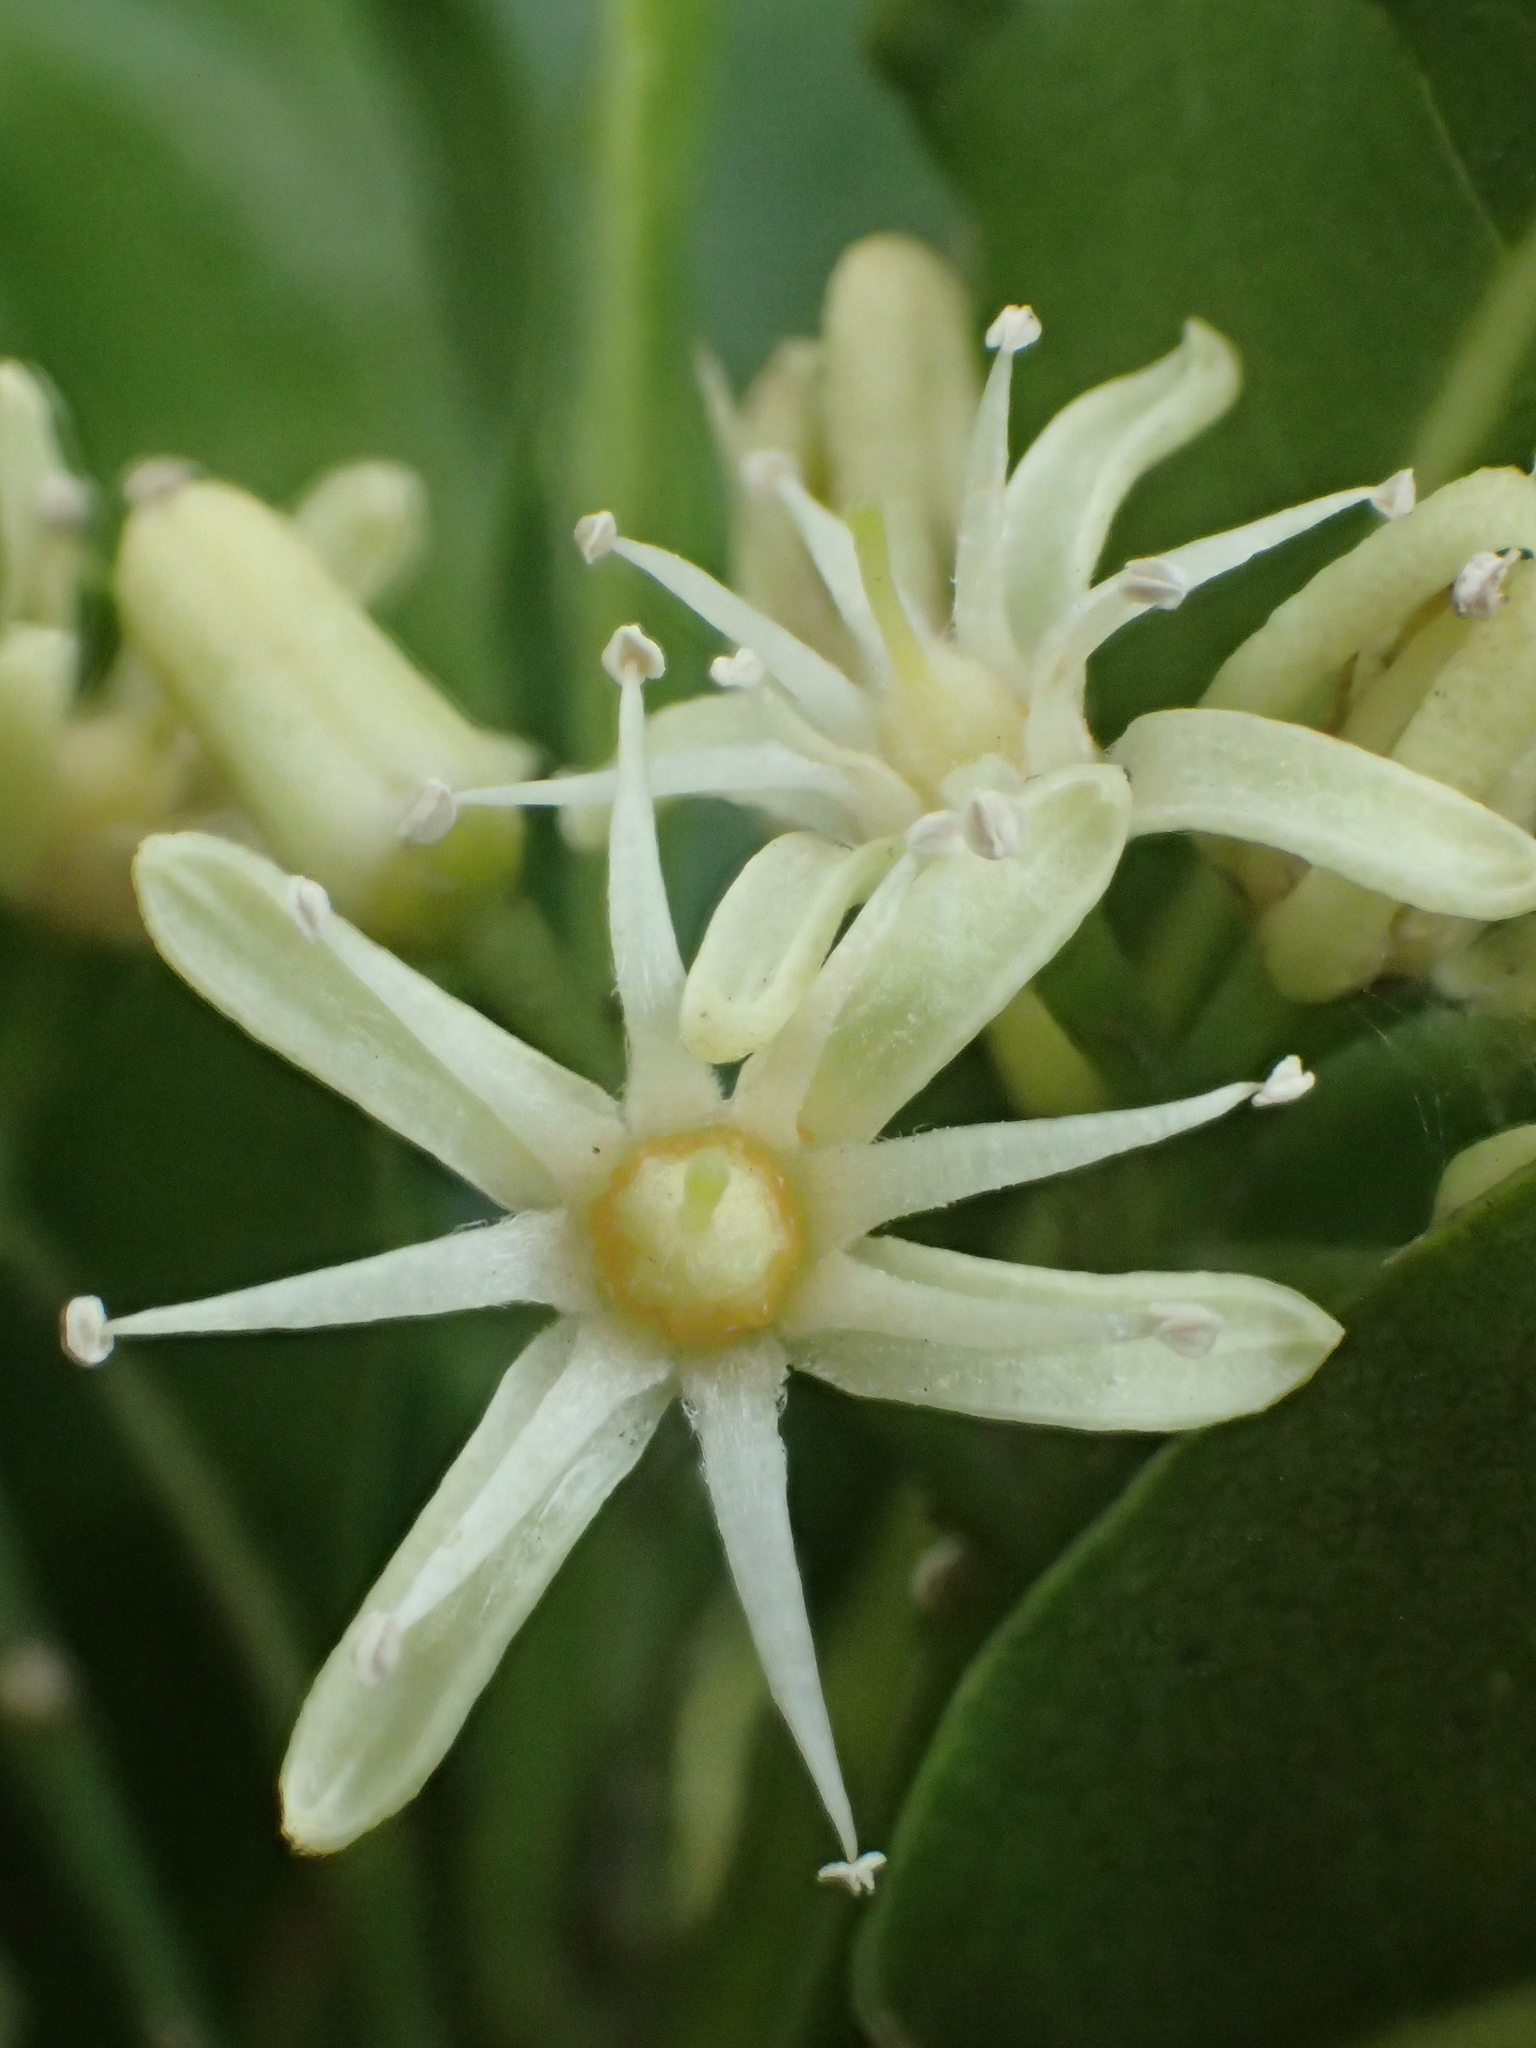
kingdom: Plantae
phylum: Tracheophyta
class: Magnoliopsida
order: Sapindales
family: Rutaceae
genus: Acronychia
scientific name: Acronychia pedunculata
